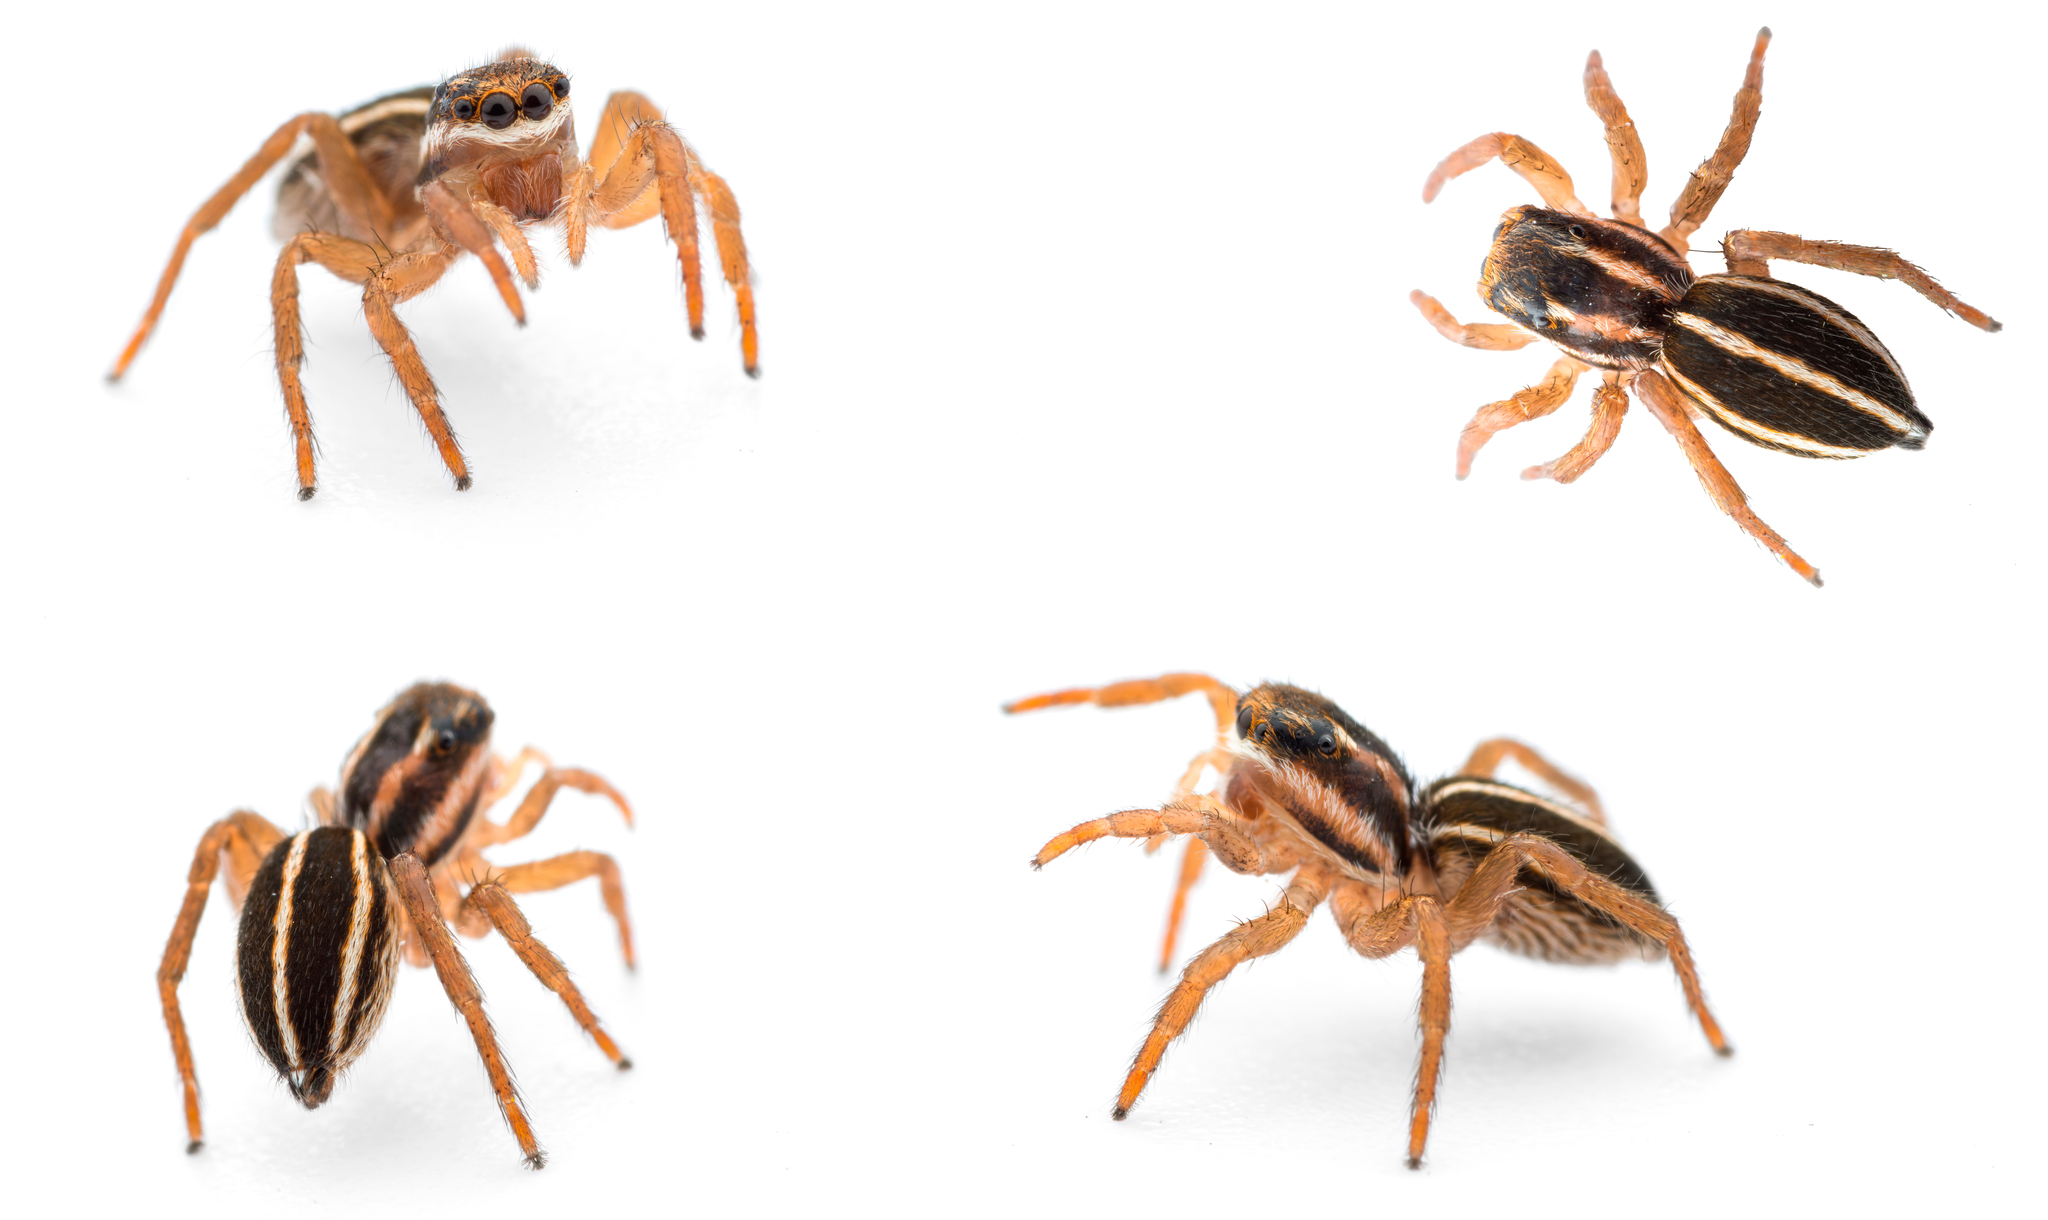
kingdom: Animalia
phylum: Arthropoda
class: Arachnida
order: Araneae
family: Salticidae
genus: Phlegra
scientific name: Phlegra bresnieri
